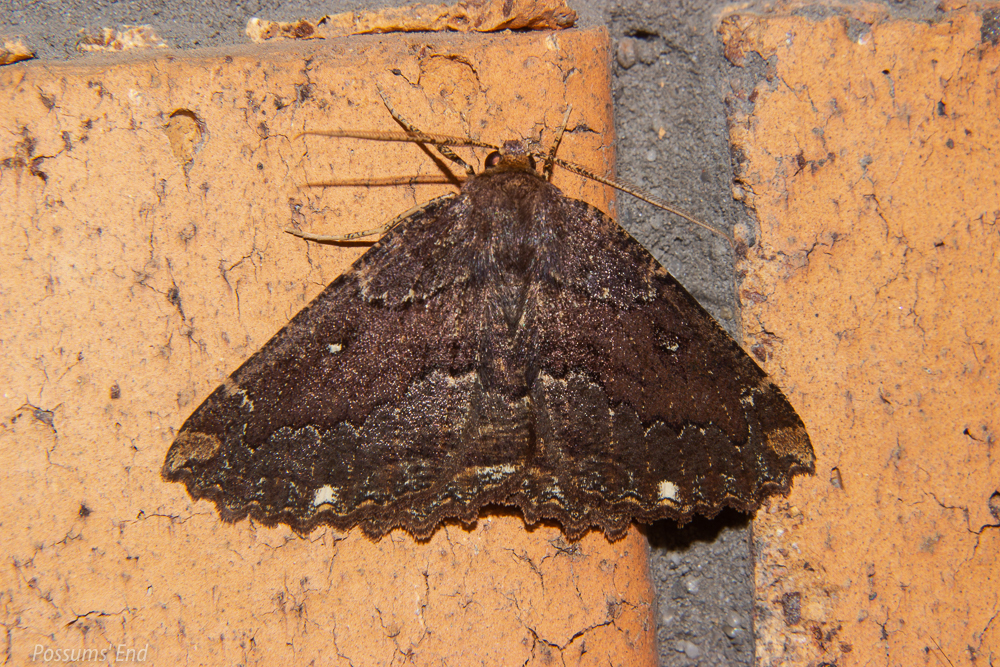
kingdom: Animalia
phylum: Arthropoda
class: Insecta
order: Lepidoptera
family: Geometridae
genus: Gellonia
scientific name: Gellonia dejectaria
